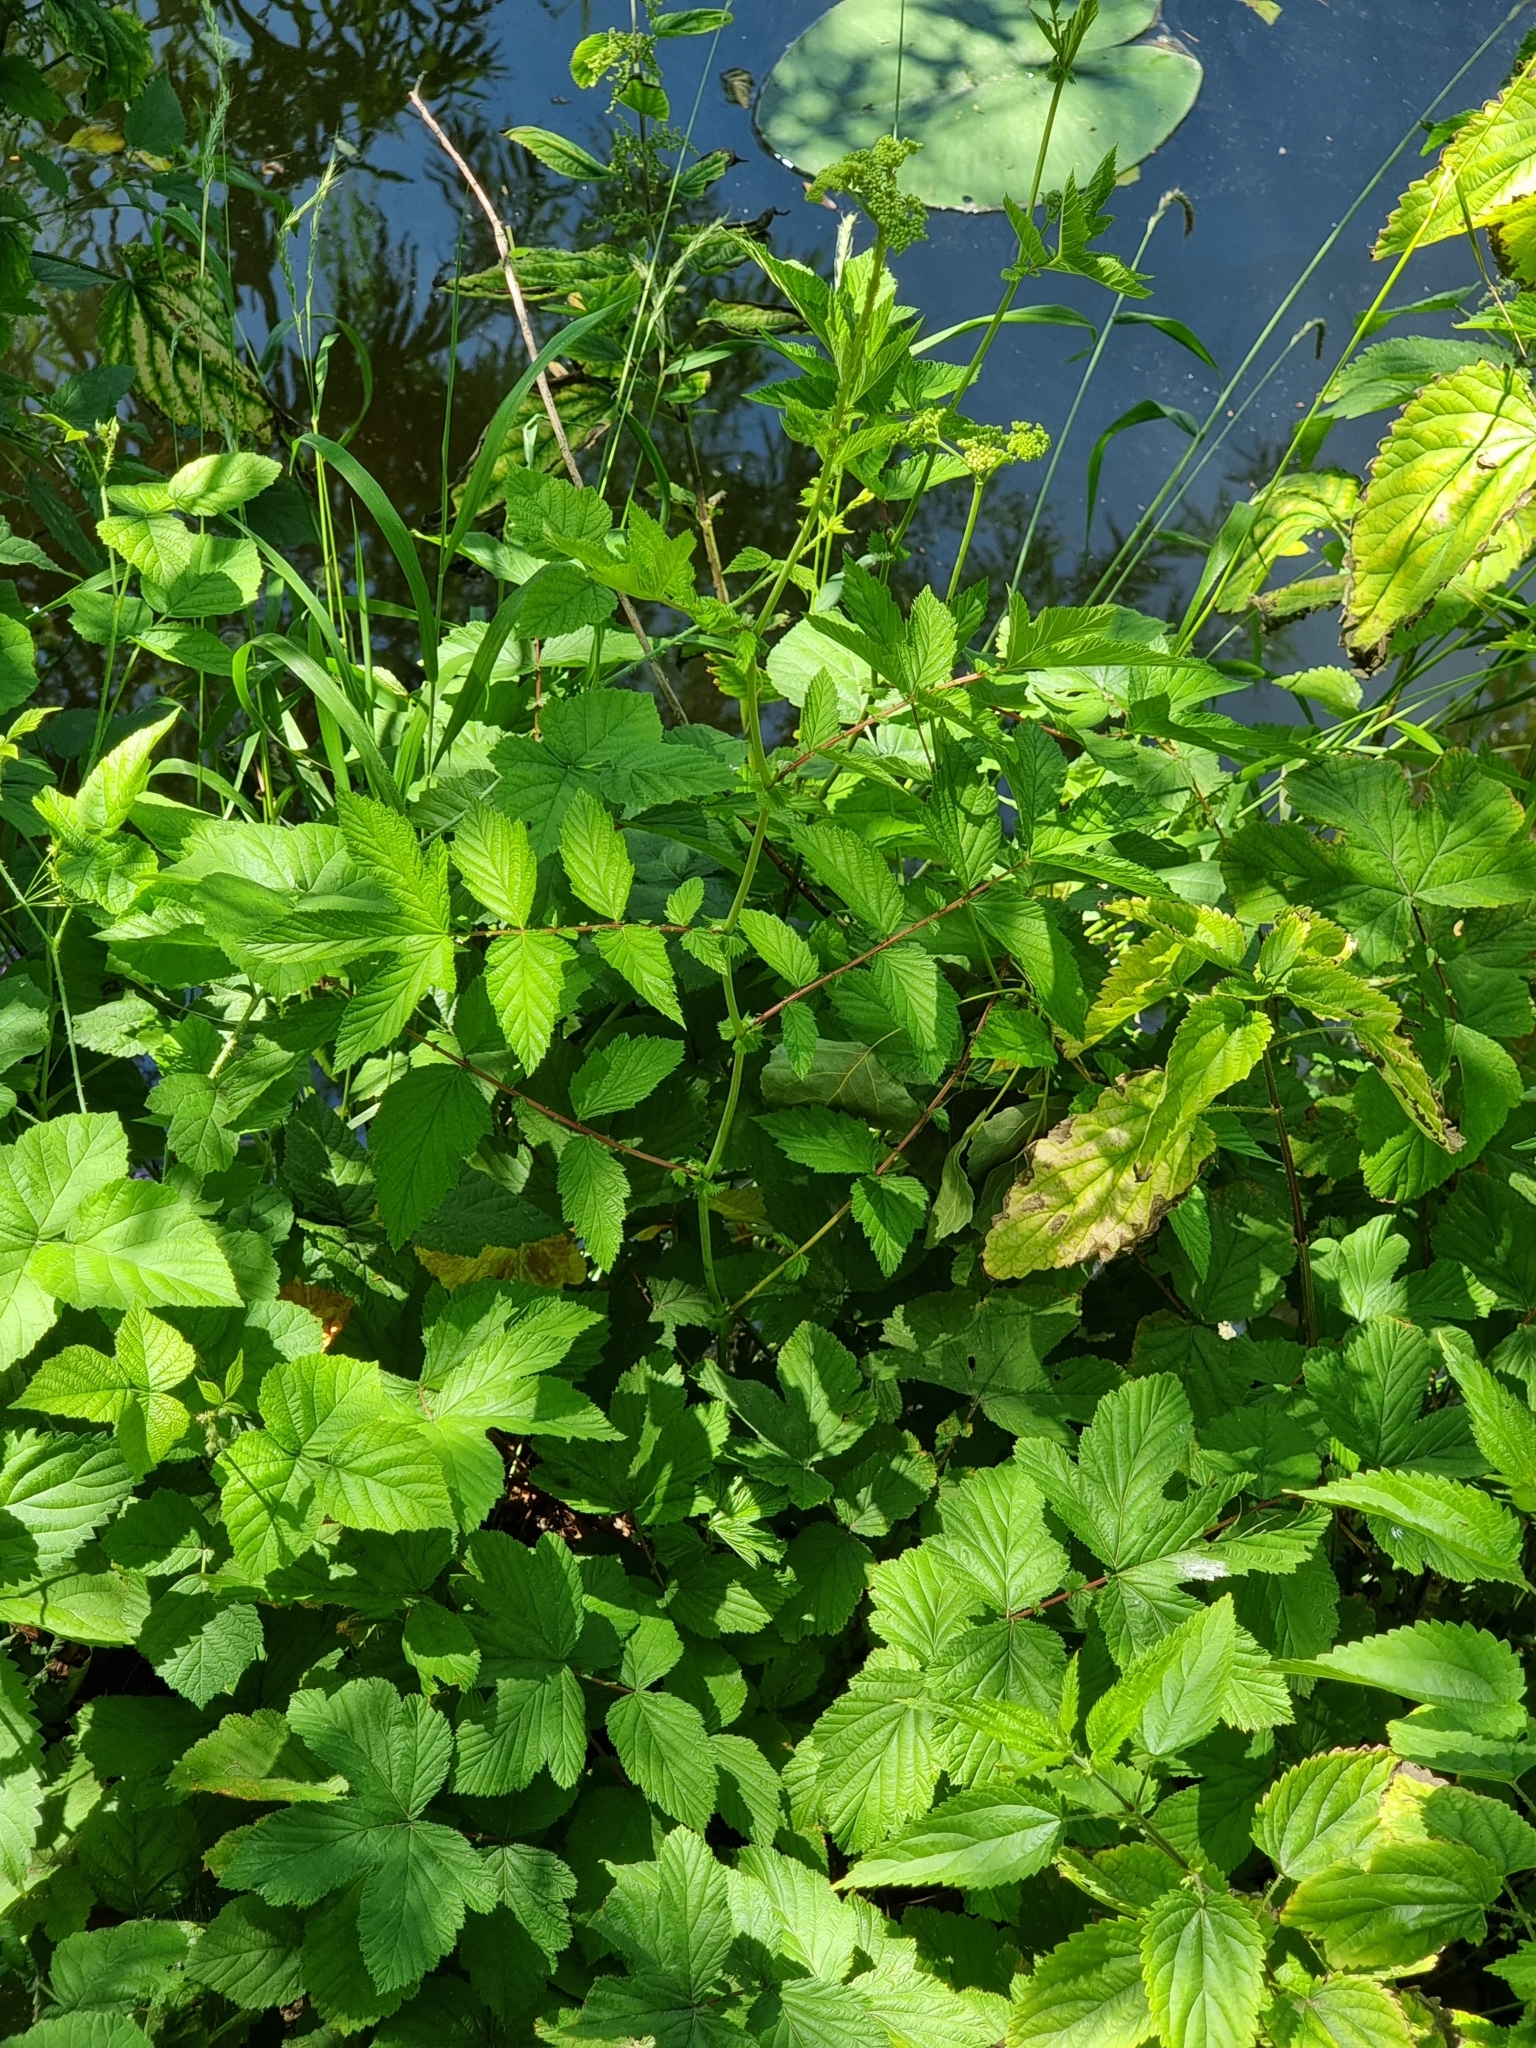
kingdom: Plantae
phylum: Tracheophyta
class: Magnoliopsida
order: Rosales
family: Rosaceae
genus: Filipendula
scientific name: Filipendula ulmaria
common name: Meadowsweet
